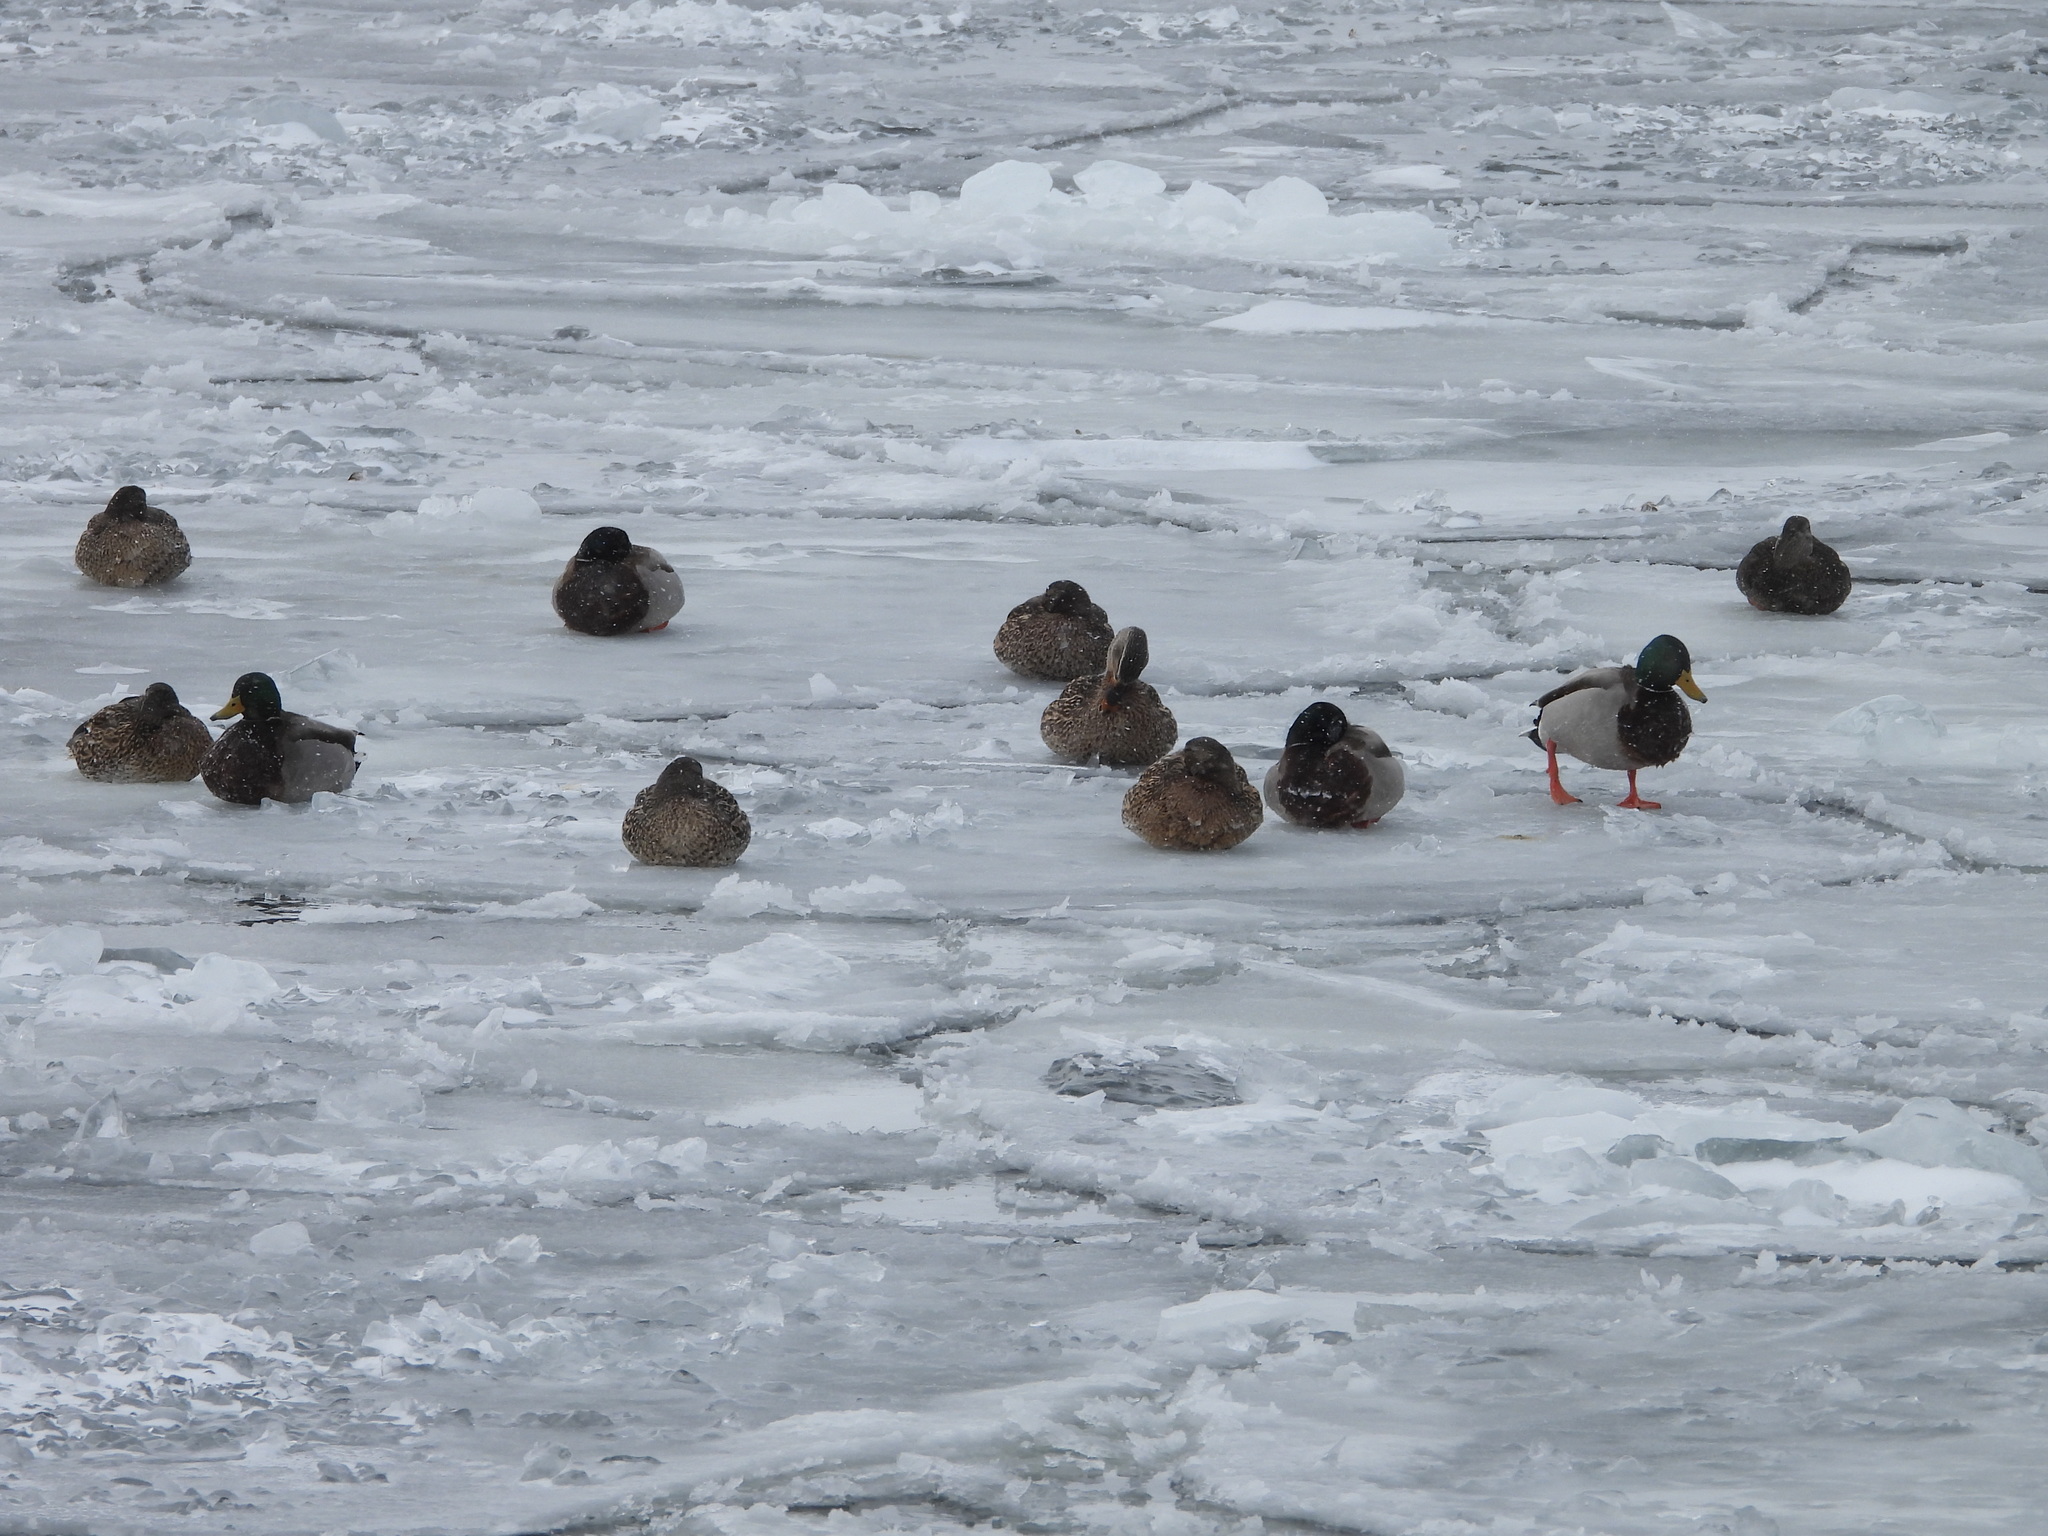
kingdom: Animalia
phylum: Chordata
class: Aves
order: Anseriformes
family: Anatidae
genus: Anas
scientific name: Anas platyrhynchos
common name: Mallard
